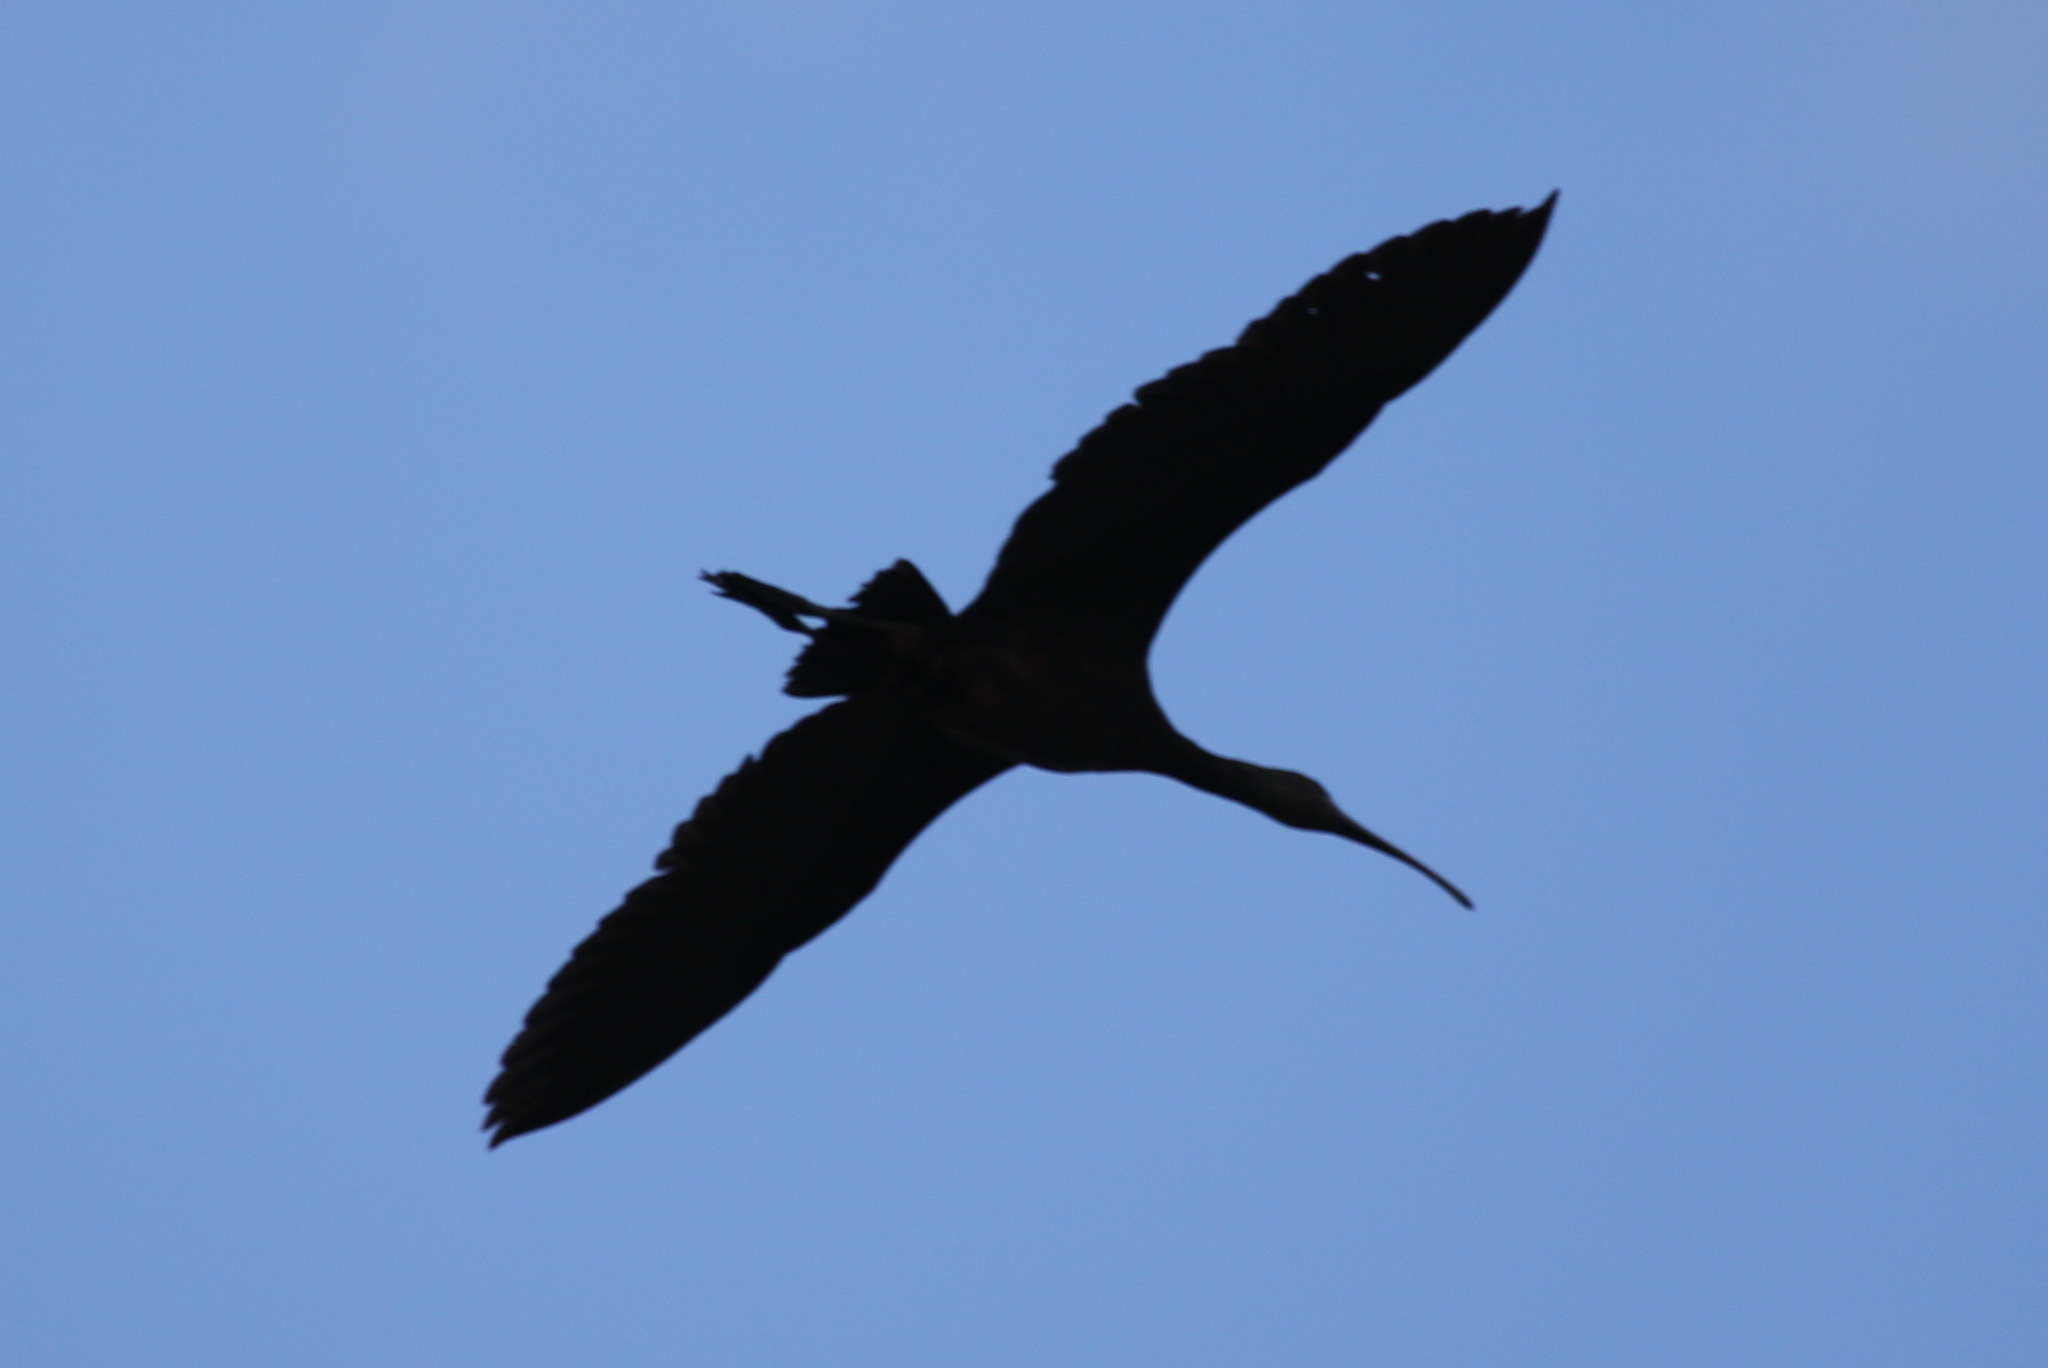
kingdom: Animalia
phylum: Chordata
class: Aves
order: Pelecaniformes
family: Threskiornithidae
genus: Plegadis
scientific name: Plegadis falcinellus
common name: Glossy ibis
